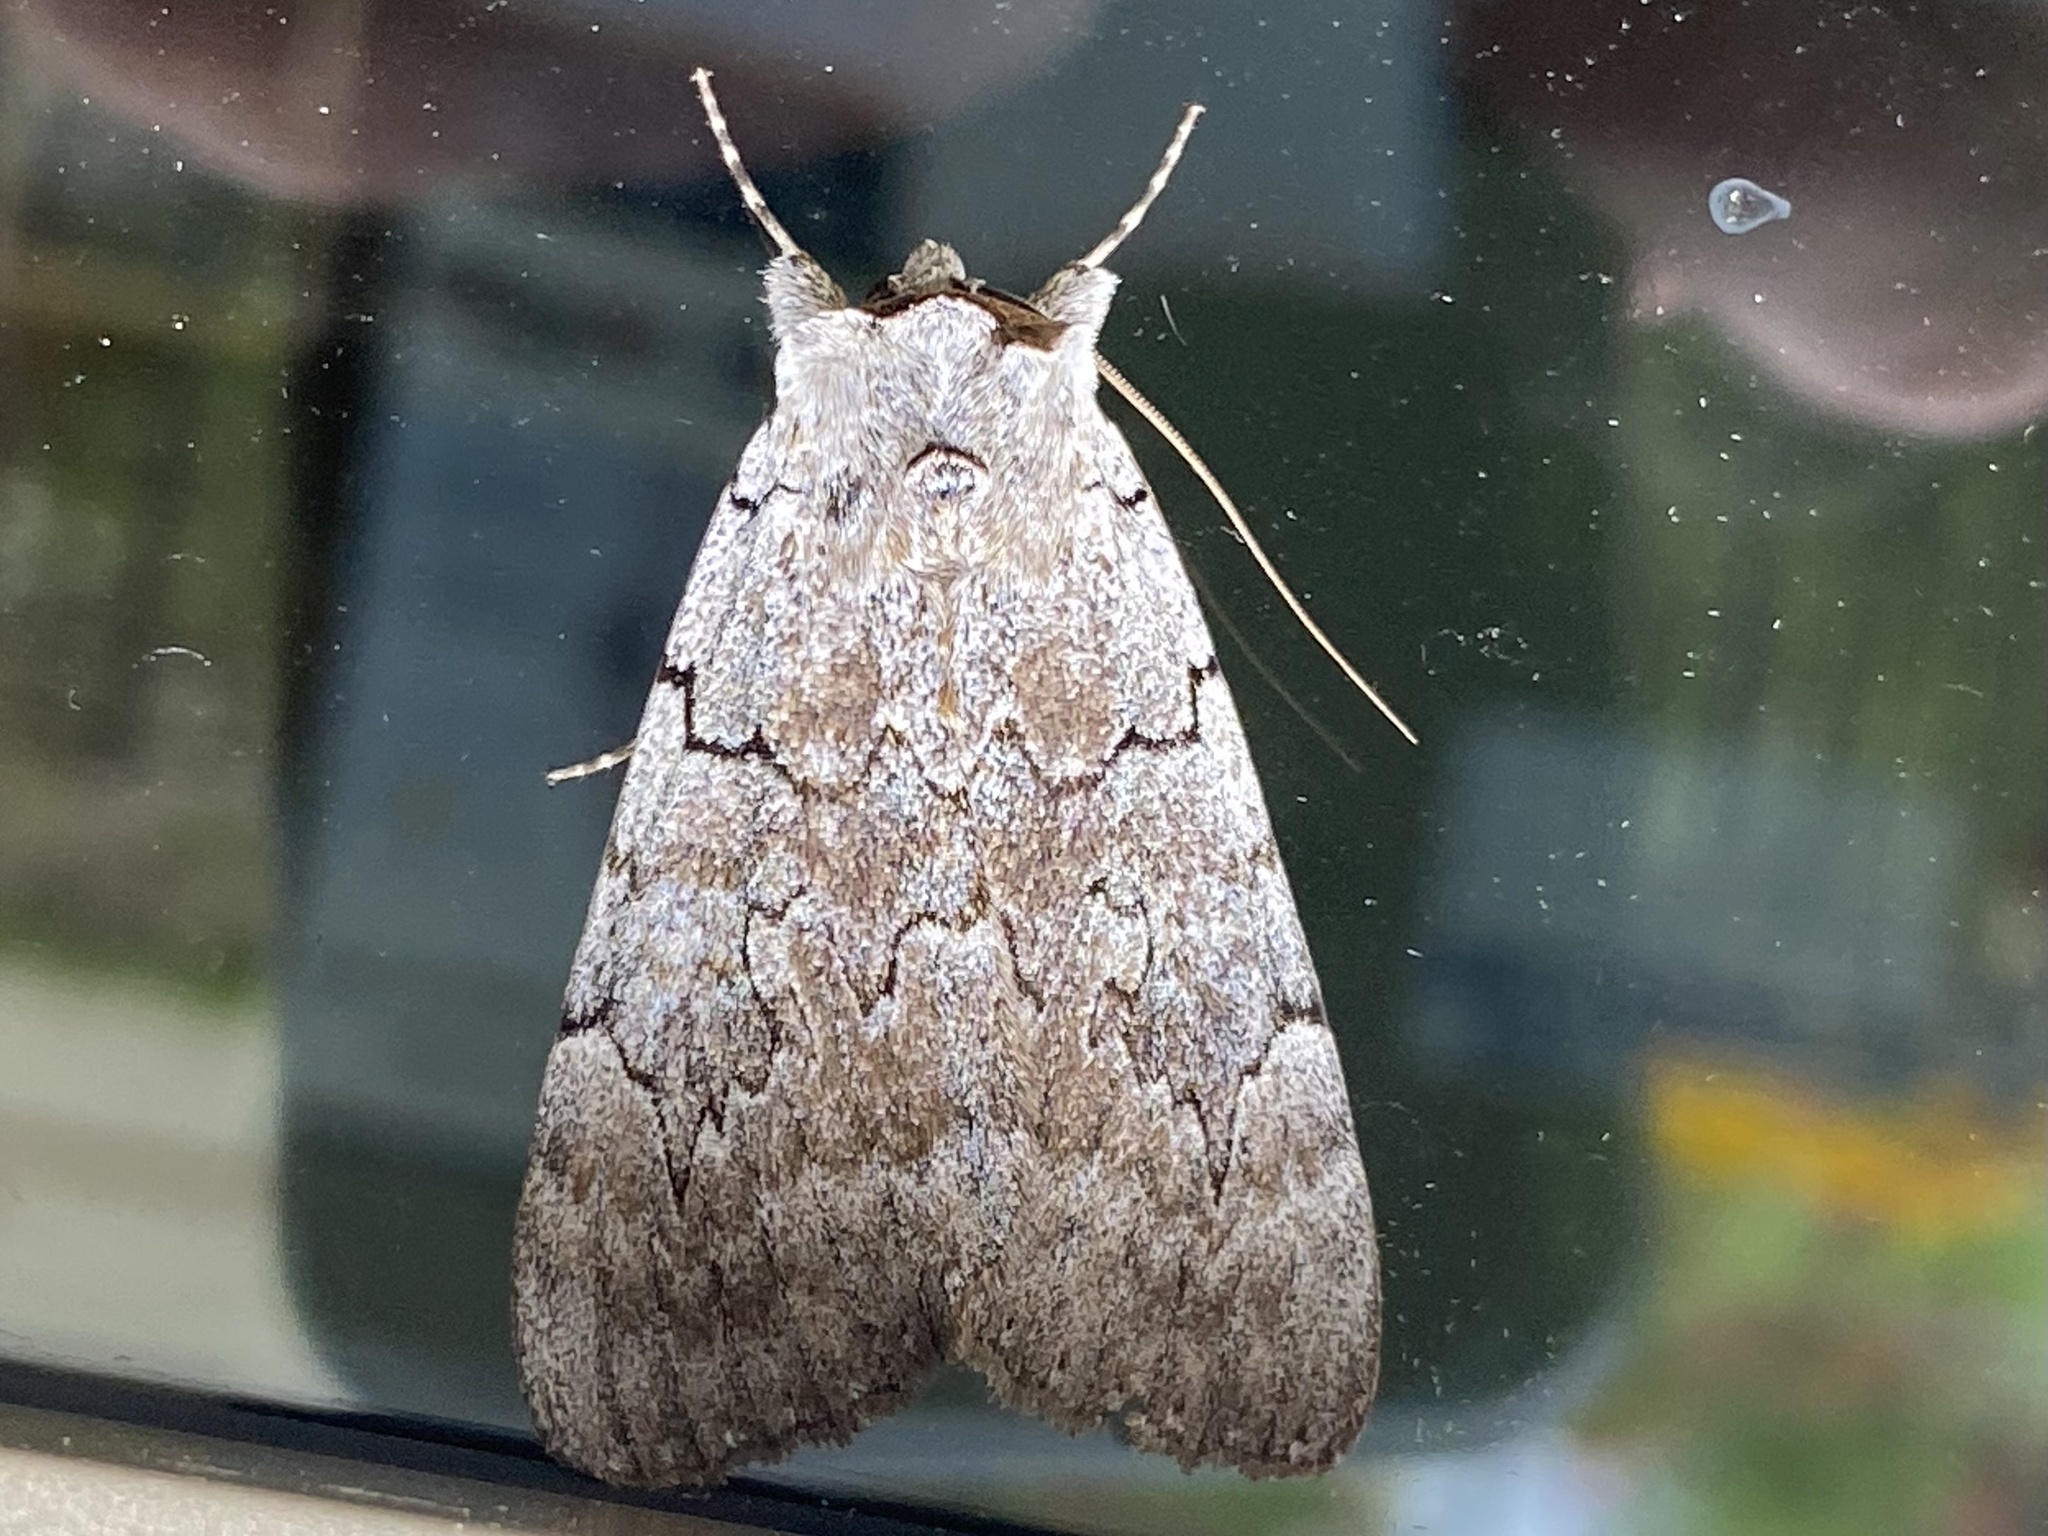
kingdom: Animalia
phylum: Arthropoda
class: Insecta
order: Lepidoptera
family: Erebidae
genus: Catocala
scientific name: Catocala concumbens
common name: Pink underwing
